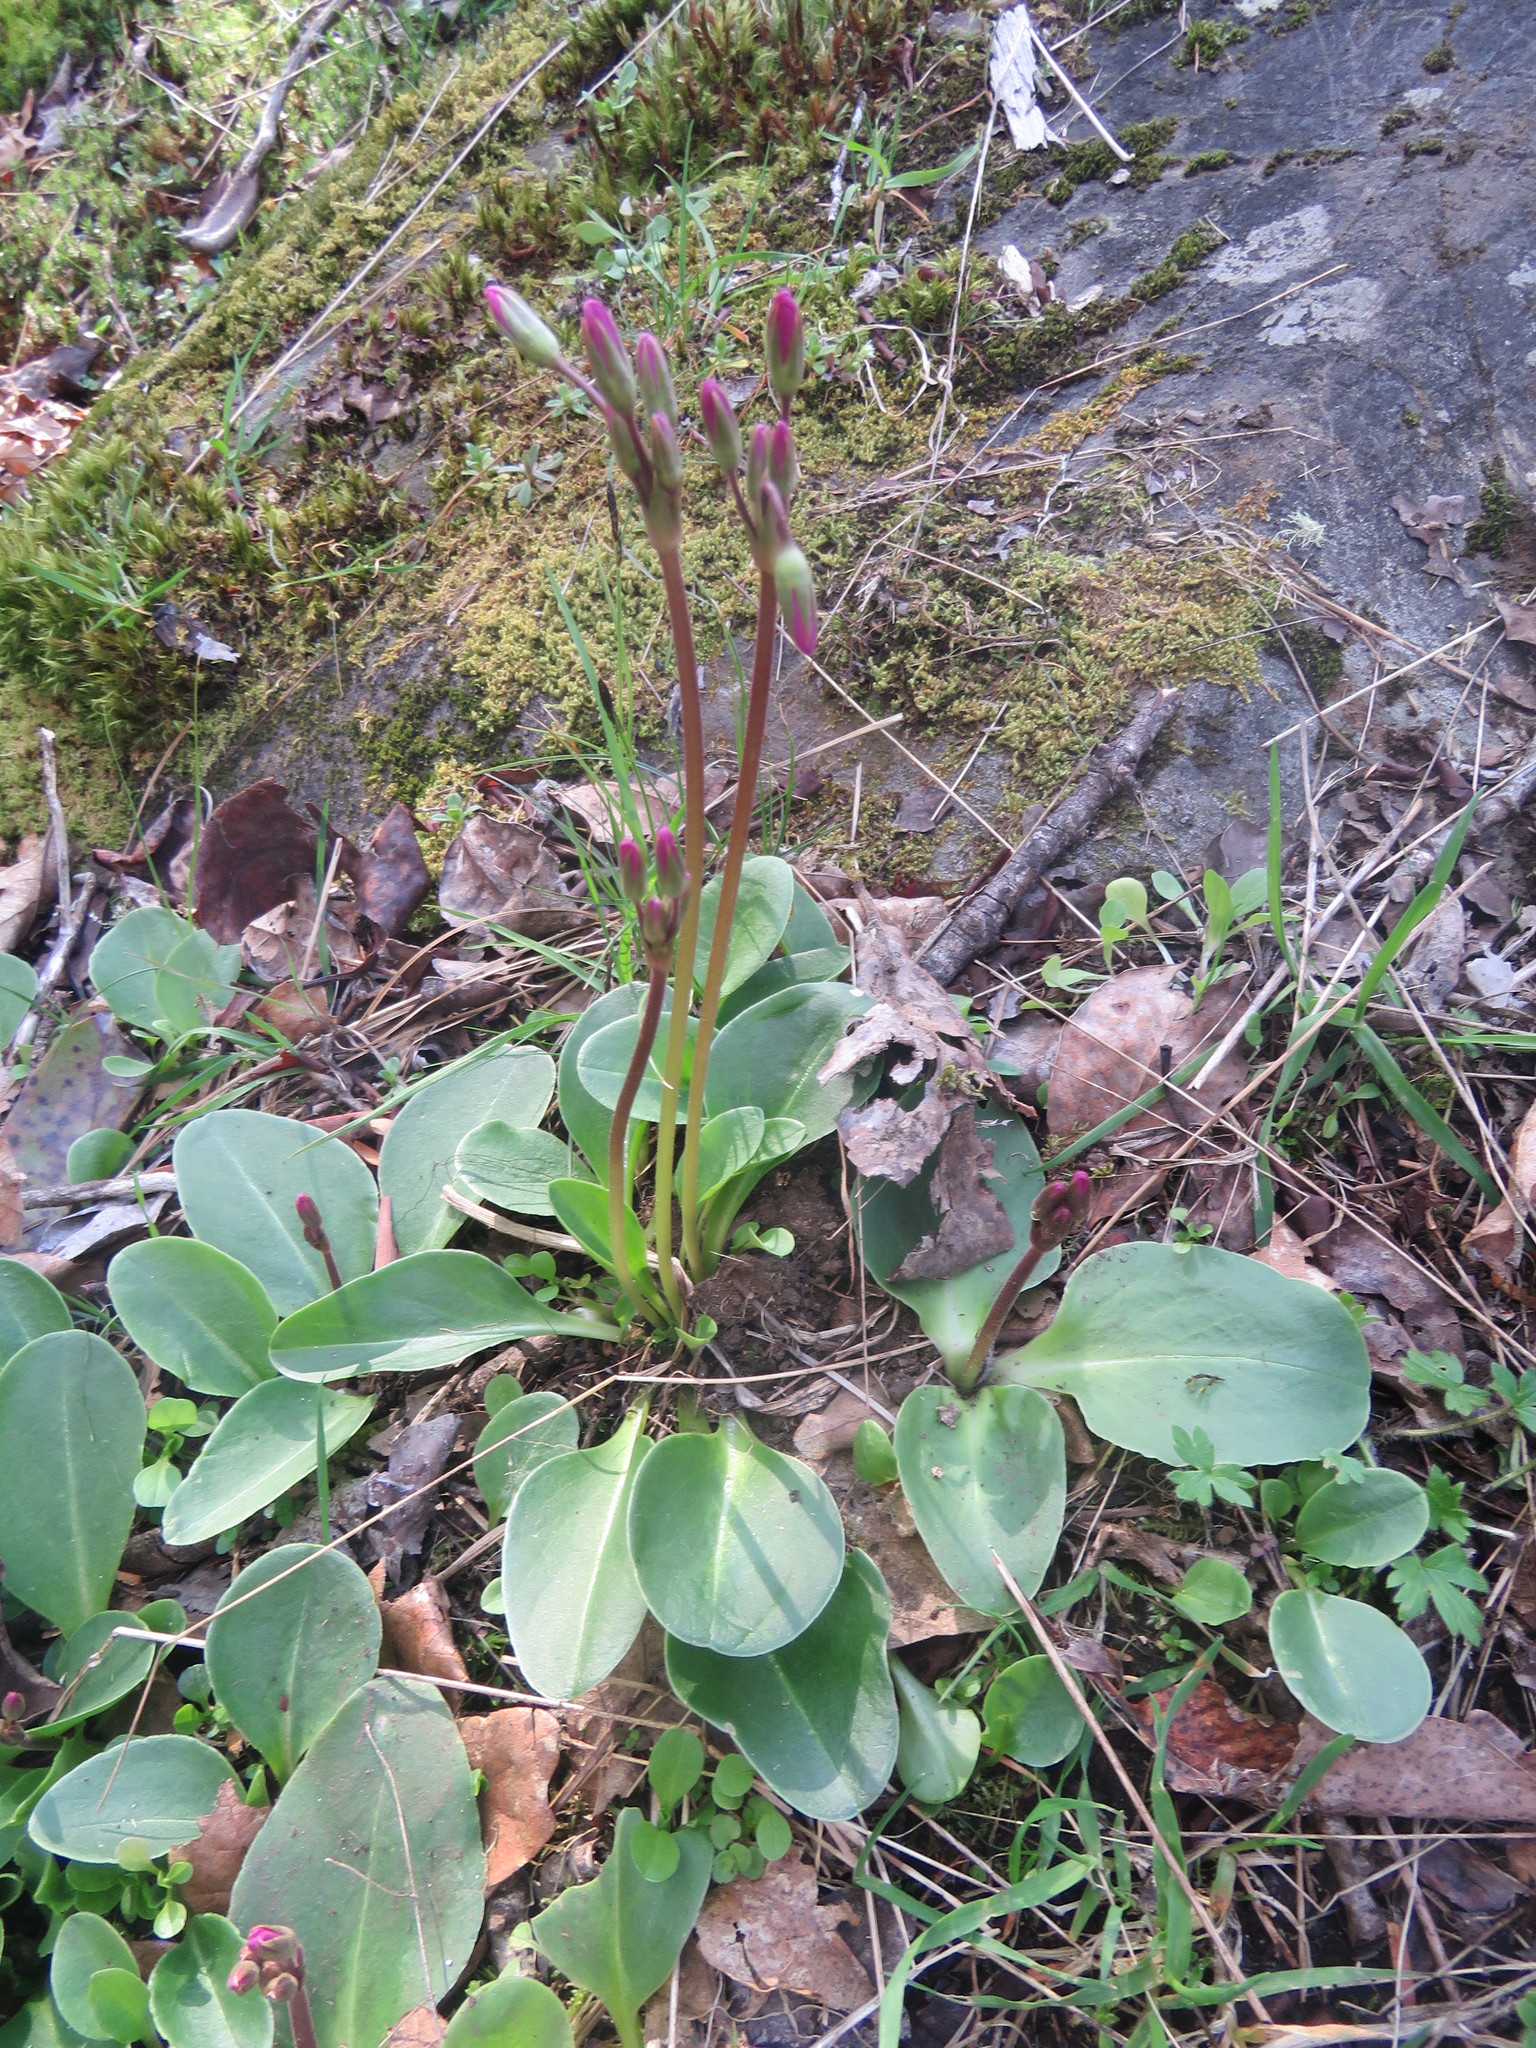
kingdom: Plantae
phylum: Tracheophyta
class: Magnoliopsida
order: Ericales
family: Primulaceae
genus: Dodecatheon
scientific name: Dodecatheon hendersonii
